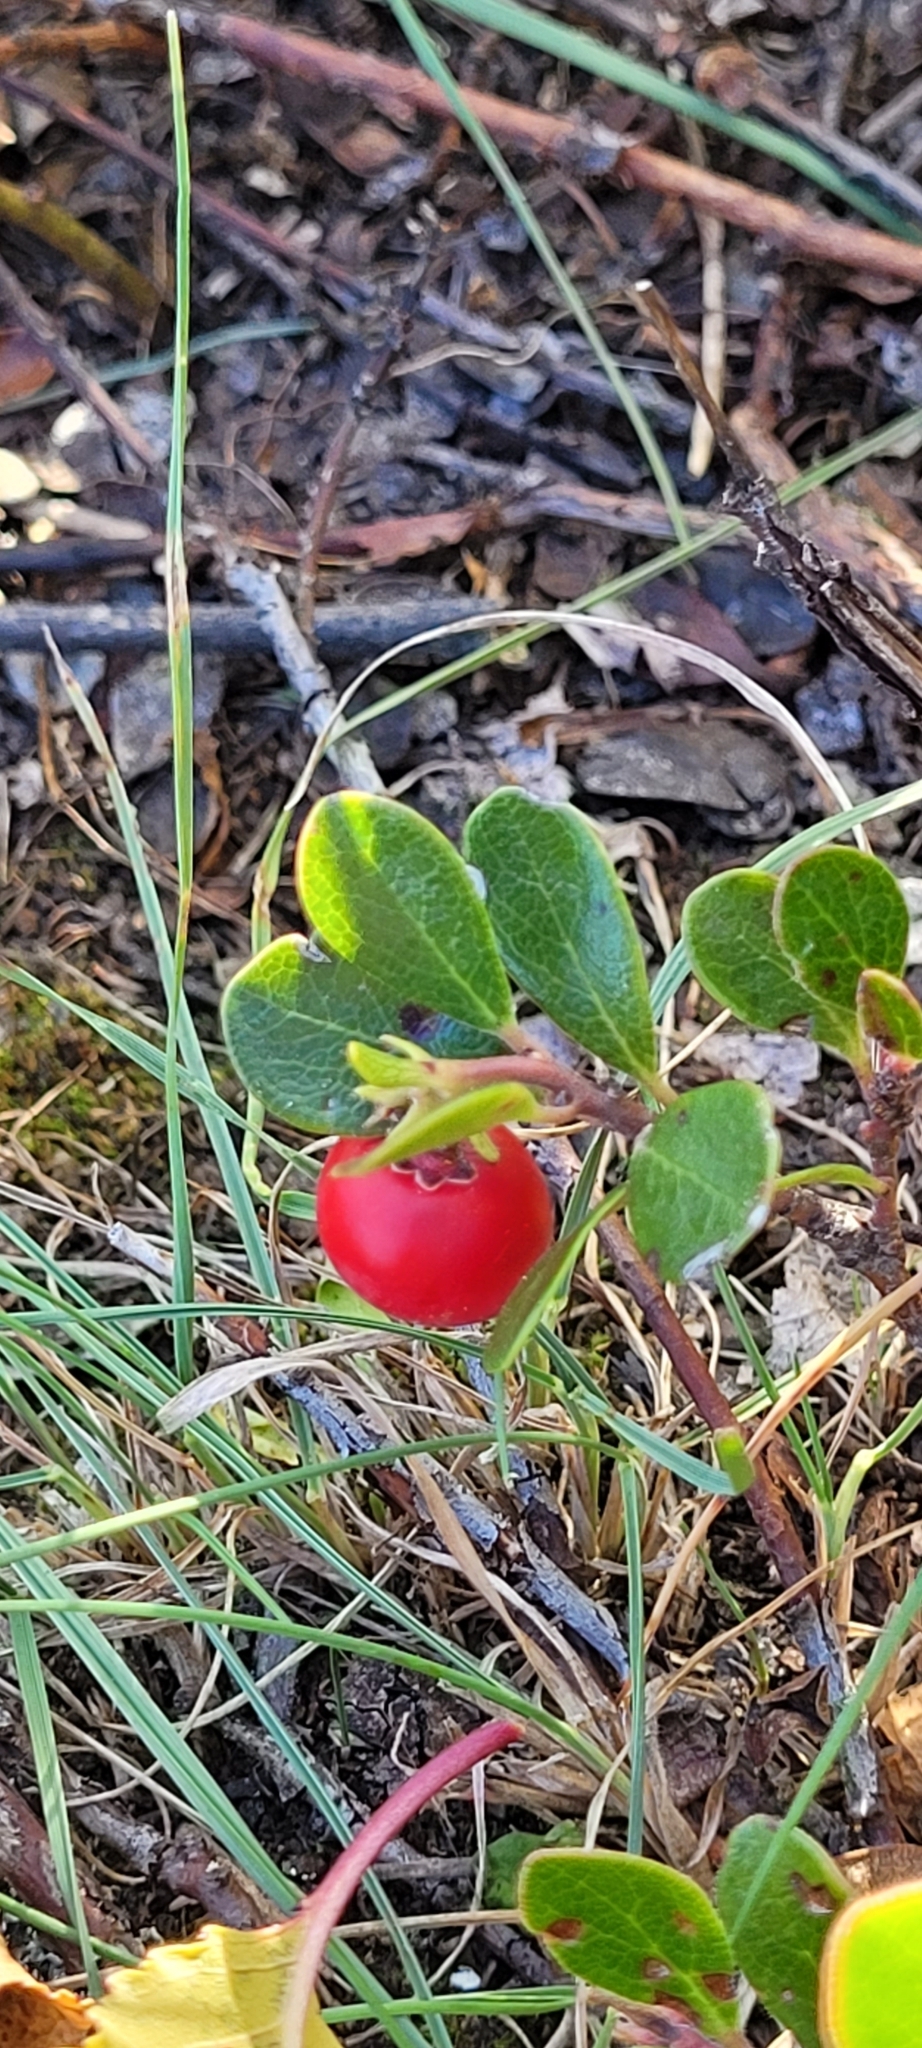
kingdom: Plantae
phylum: Tracheophyta
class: Magnoliopsida
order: Ericales
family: Ericaceae
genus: Arctostaphylos
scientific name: Arctostaphylos uva-ursi
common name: Bearberry
